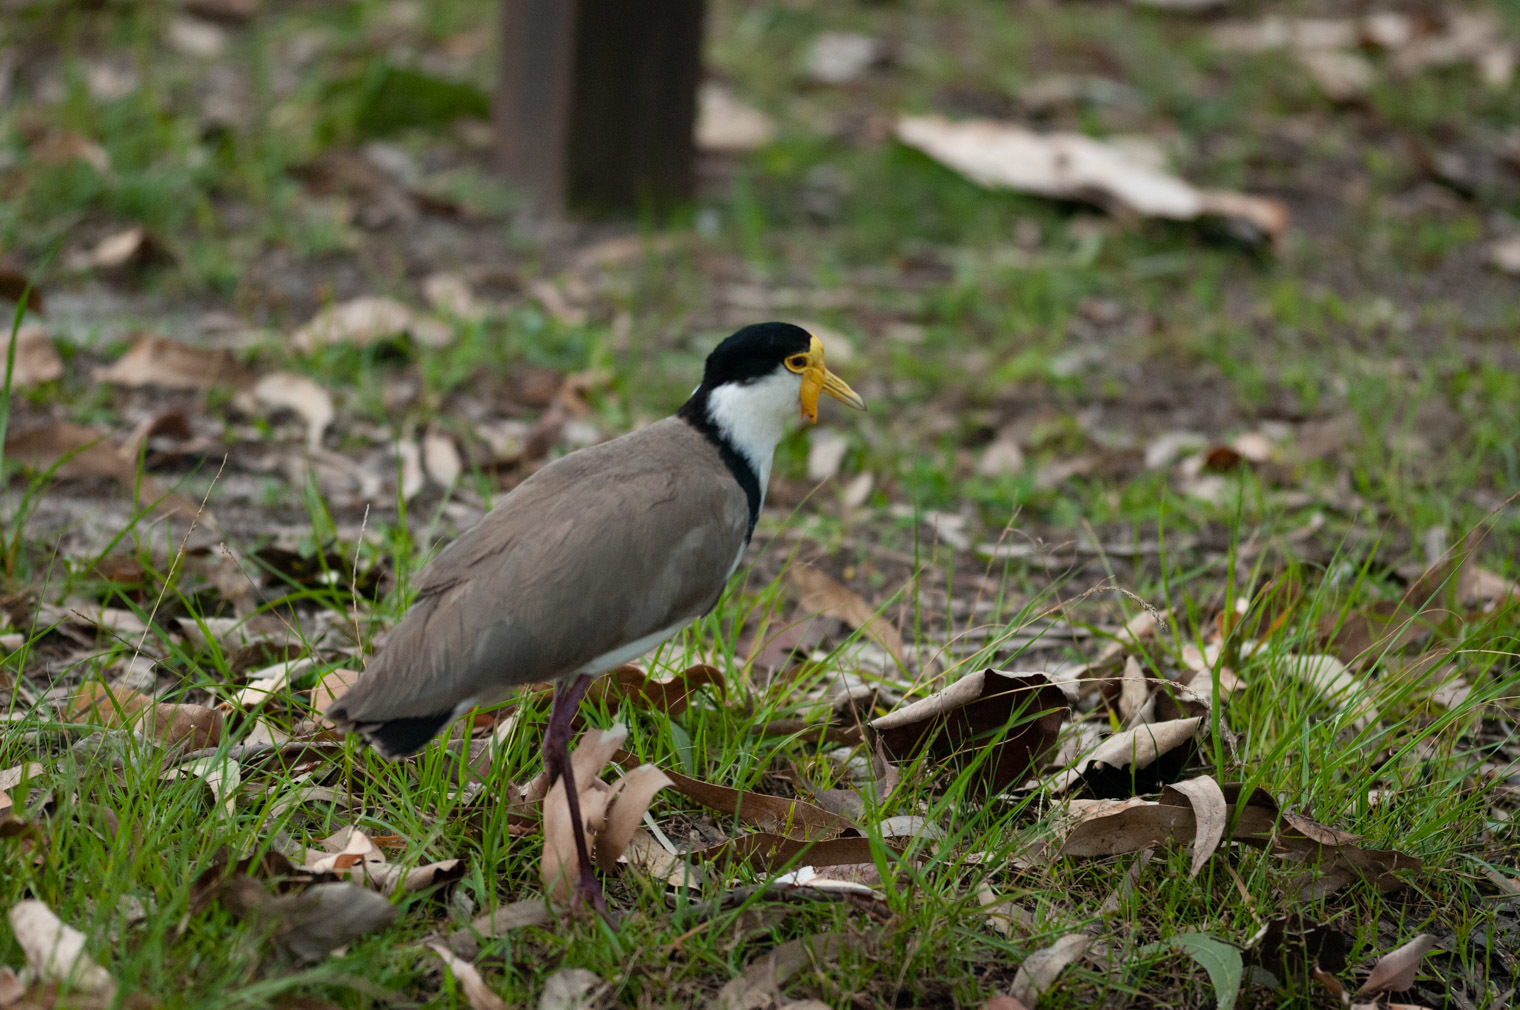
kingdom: Animalia
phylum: Chordata
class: Aves
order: Charadriiformes
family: Charadriidae
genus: Vanellus
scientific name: Vanellus miles
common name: Masked lapwing
